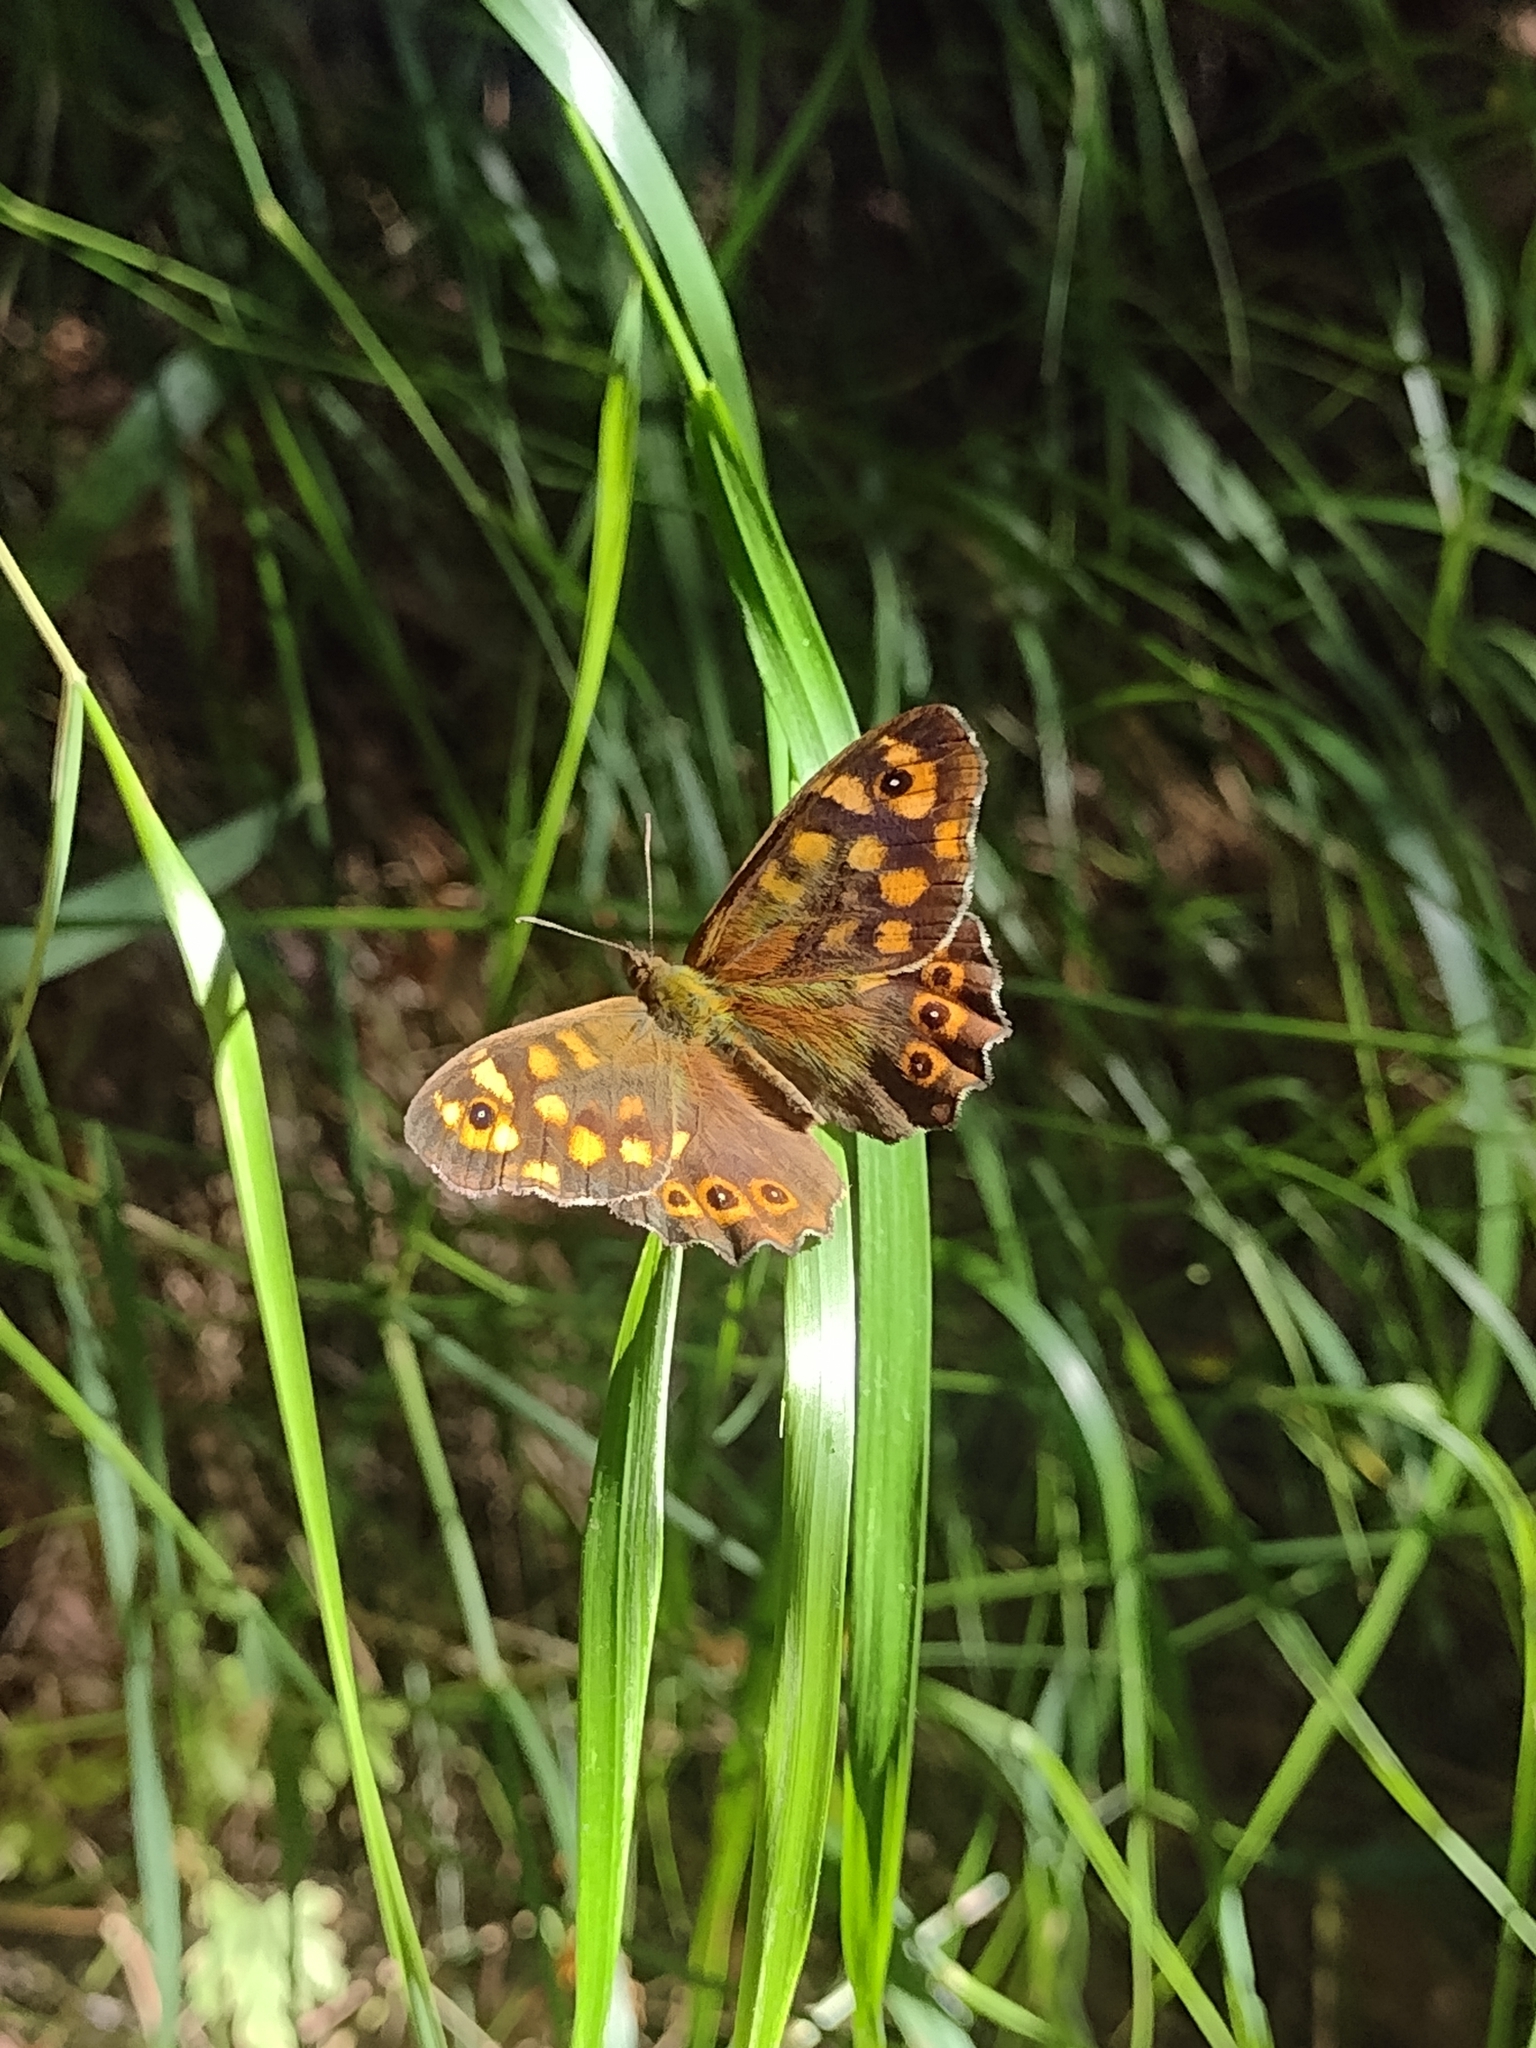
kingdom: Animalia
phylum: Arthropoda
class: Insecta
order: Lepidoptera
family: Nymphalidae
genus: Pararge
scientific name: Pararge aegeria
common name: Speckled wood
